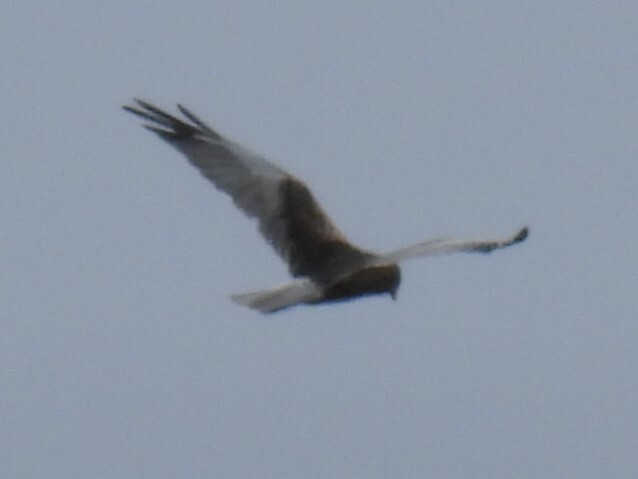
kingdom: Animalia
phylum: Chordata
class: Aves
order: Accipitriformes
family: Accipitridae
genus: Circus
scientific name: Circus aeruginosus
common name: Western marsh harrier
